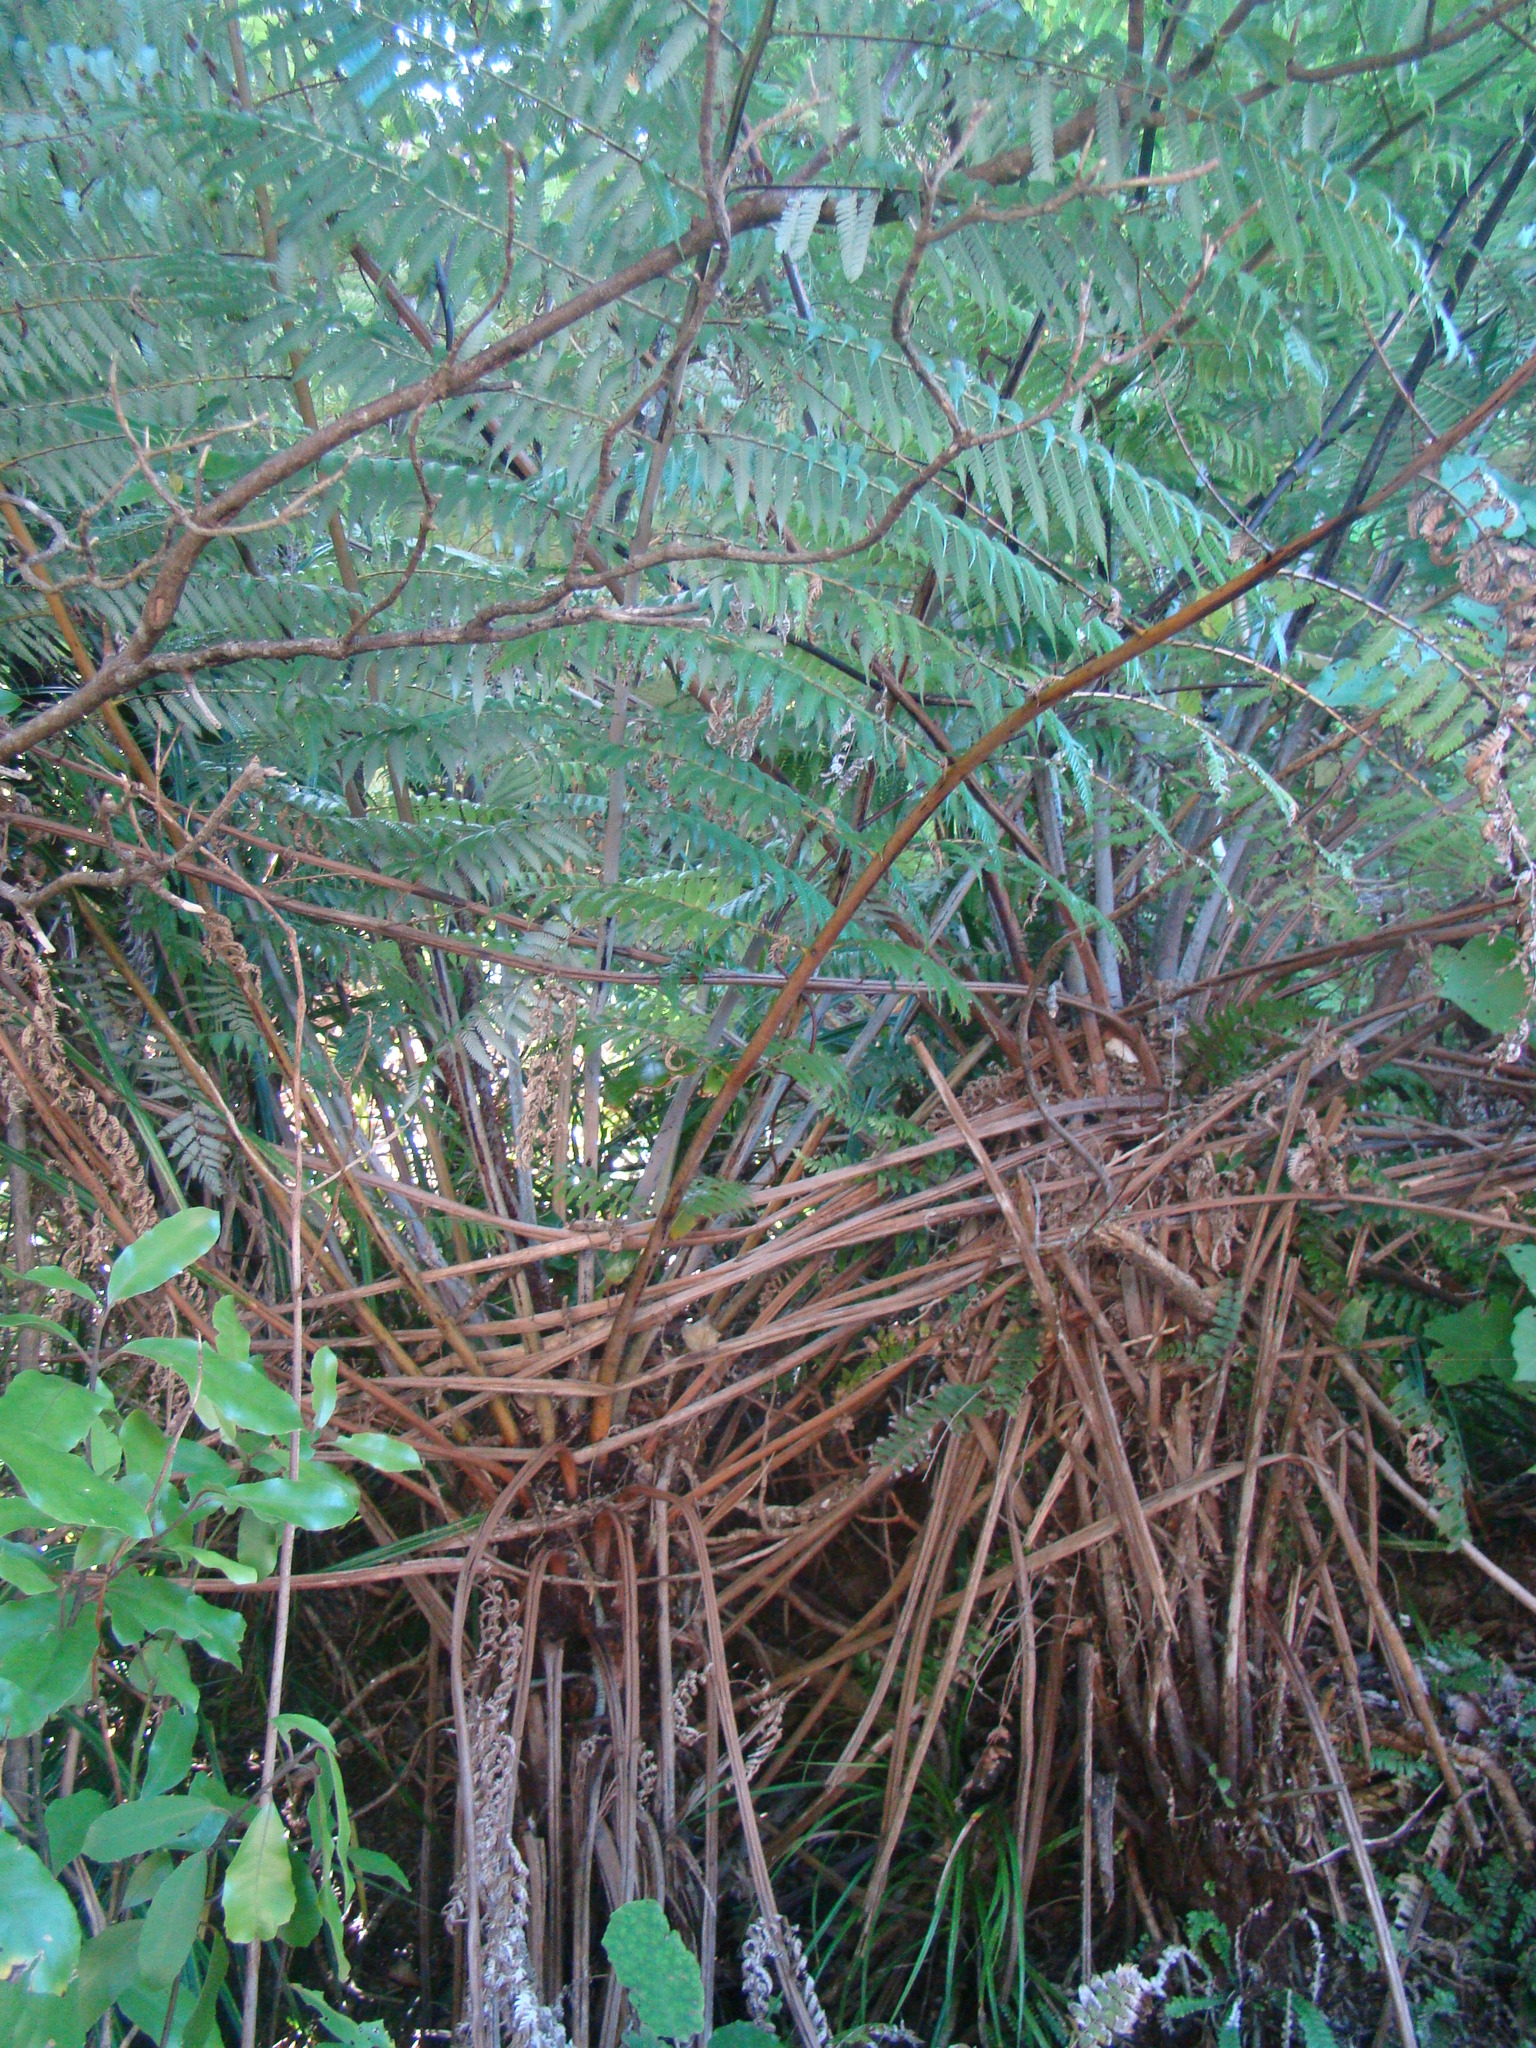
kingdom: Plantae
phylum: Tracheophyta
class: Polypodiopsida
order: Cyatheales
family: Cyatheaceae
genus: Alsophila
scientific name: Alsophila dealbata
